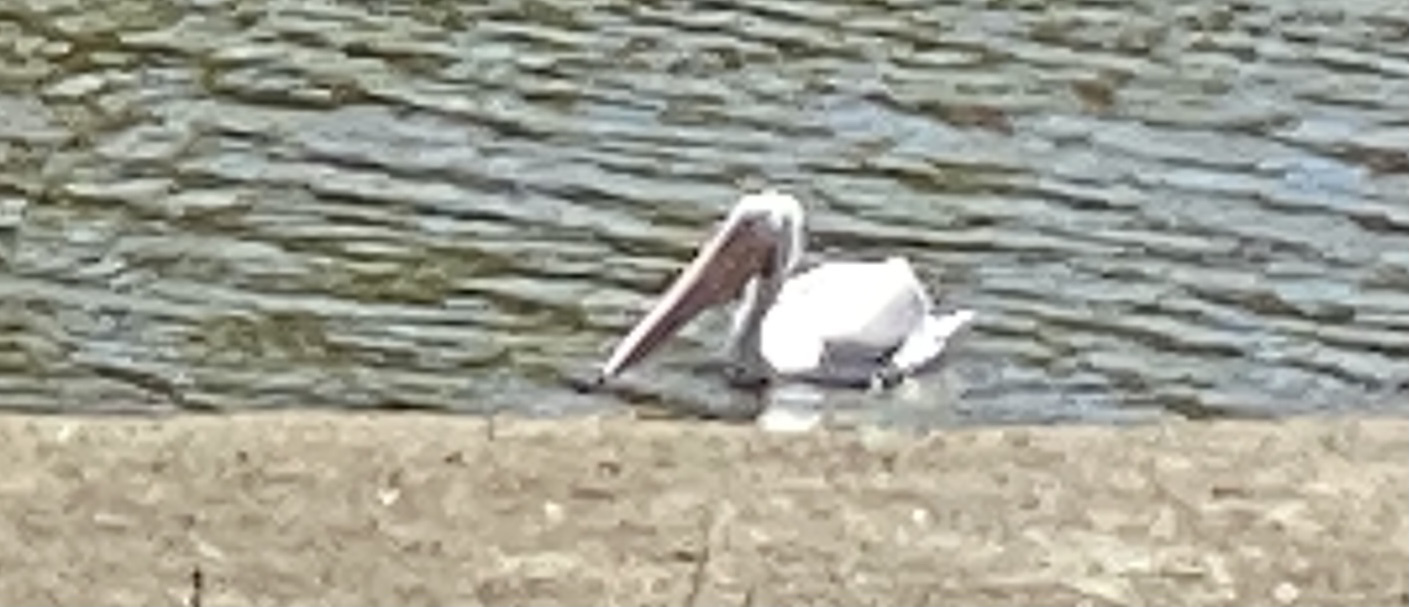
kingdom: Animalia
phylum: Chordata
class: Aves
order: Pelecaniformes
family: Pelecanidae
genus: Pelecanus
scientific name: Pelecanus erythrorhynchos
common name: American white pelican
